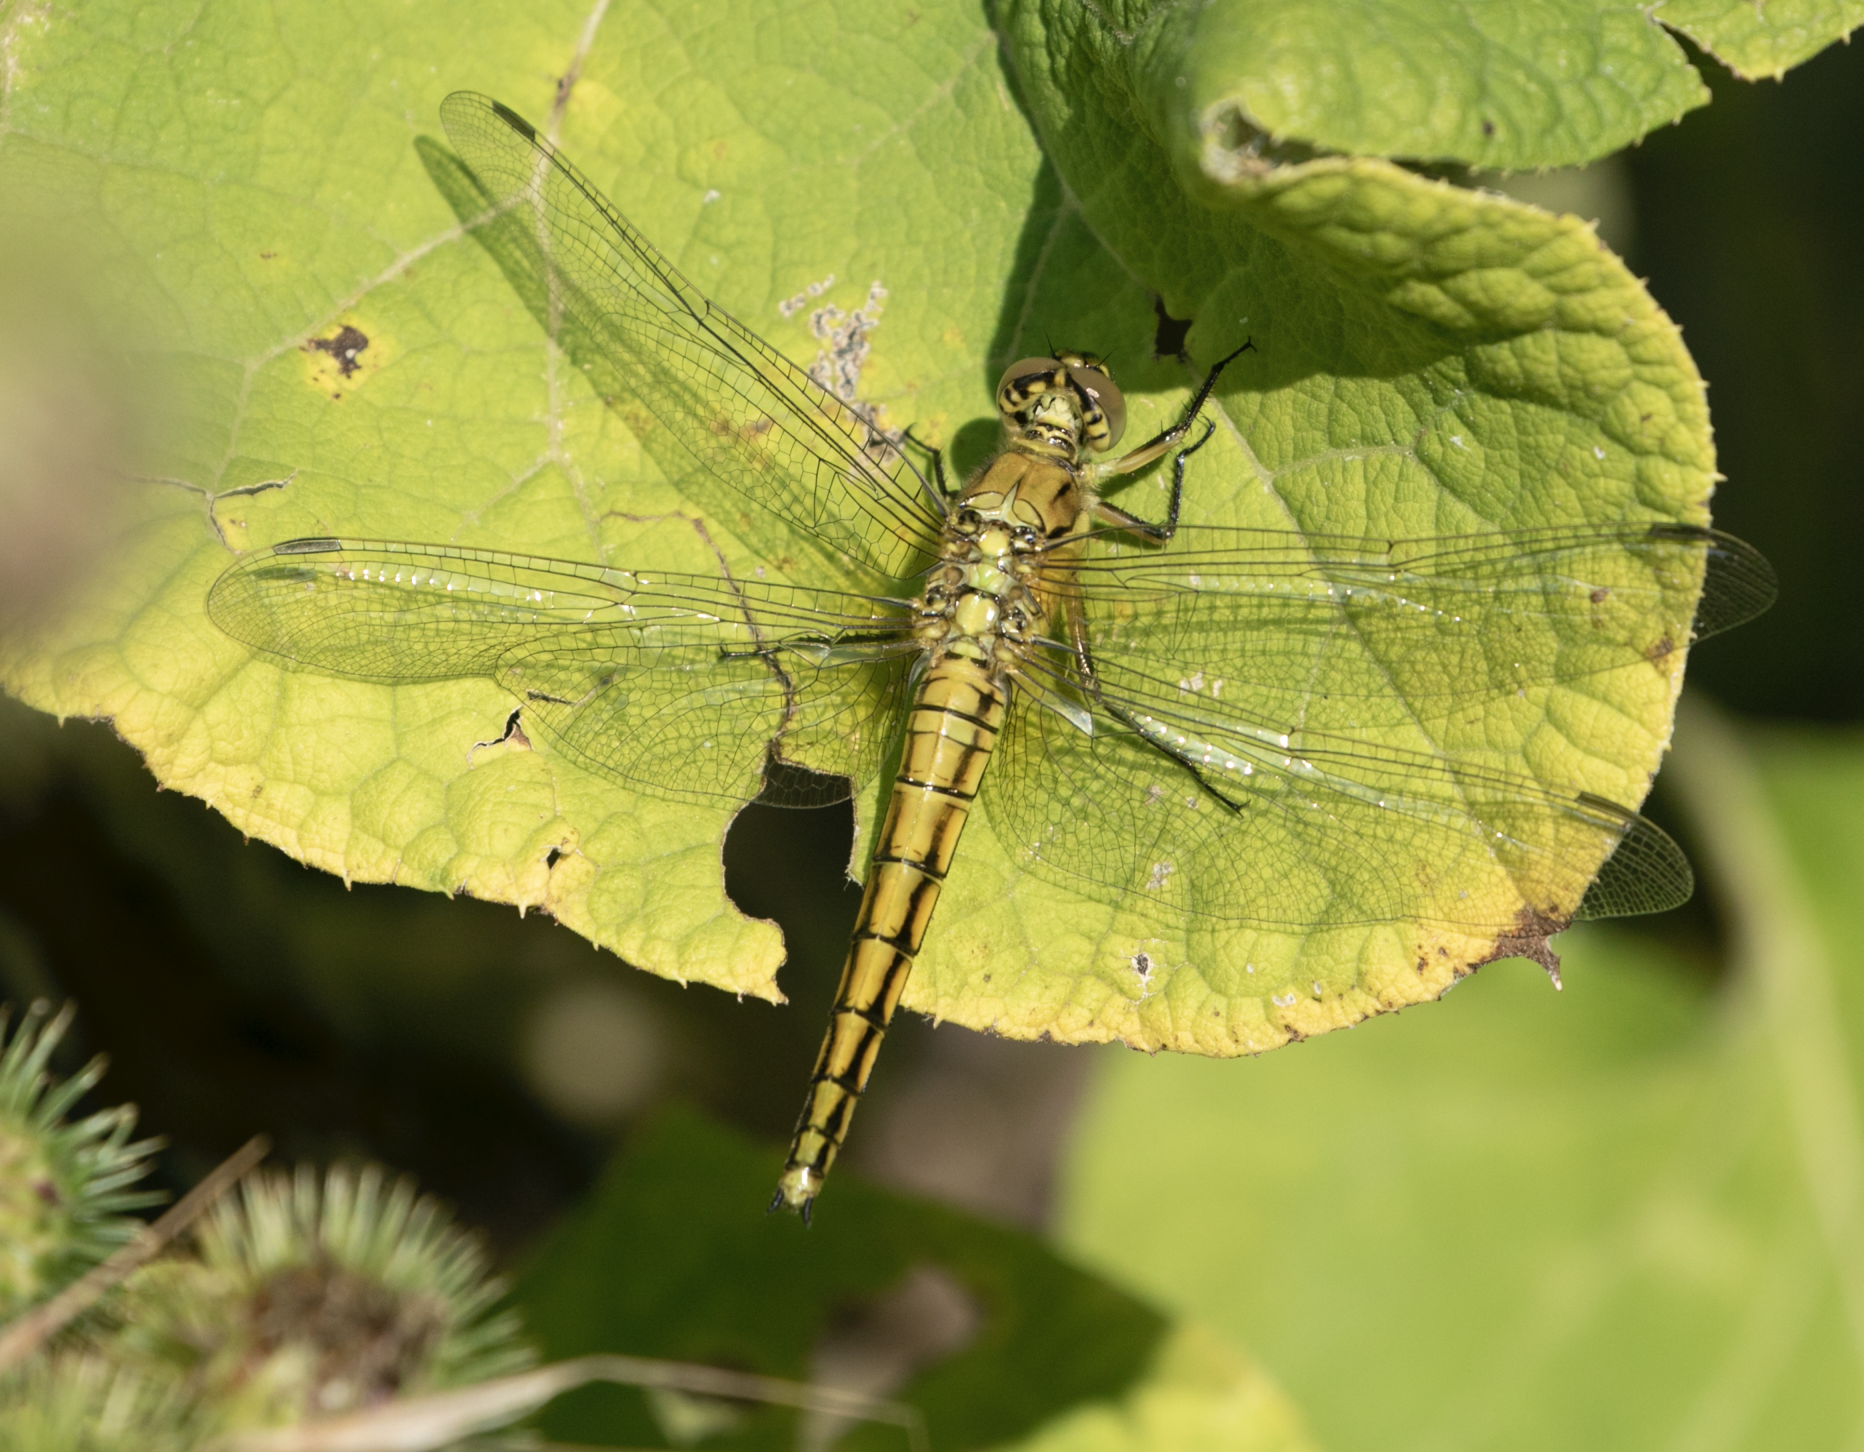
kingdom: Animalia
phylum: Arthropoda
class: Insecta
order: Odonata
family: Libellulidae
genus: Orthetrum
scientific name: Orthetrum cancellatum
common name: Black-tailed skimmer
